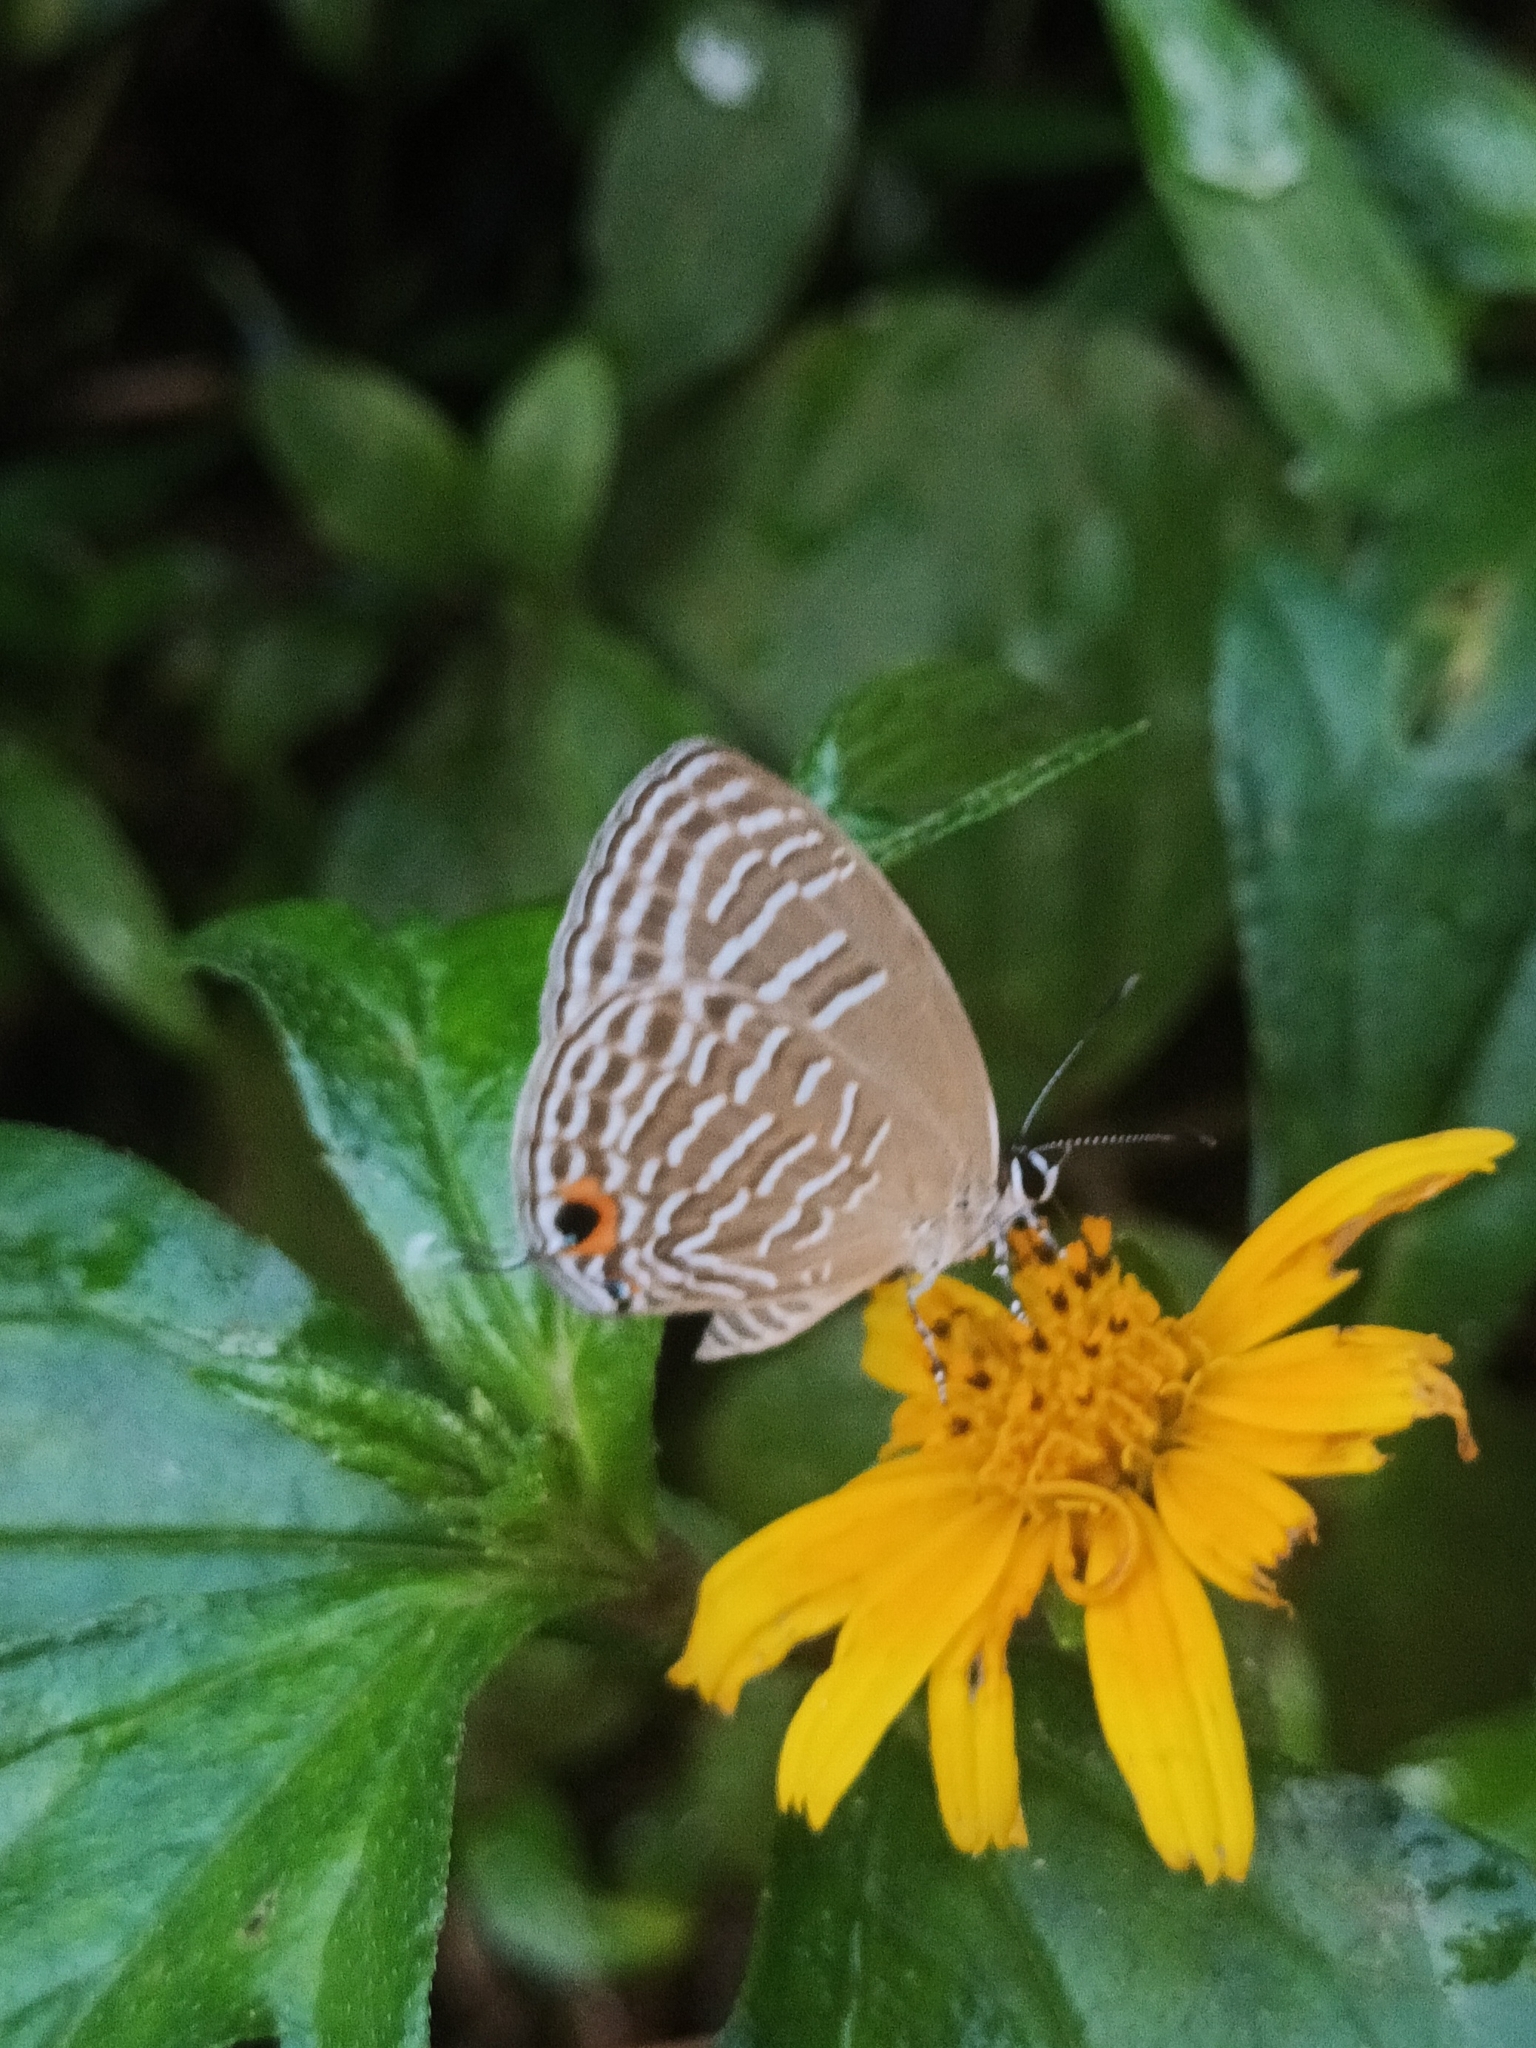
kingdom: Animalia
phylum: Arthropoda
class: Insecta
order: Lepidoptera
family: Lycaenidae
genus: Jamides
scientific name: Jamides alecto
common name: Metallic cerulean
